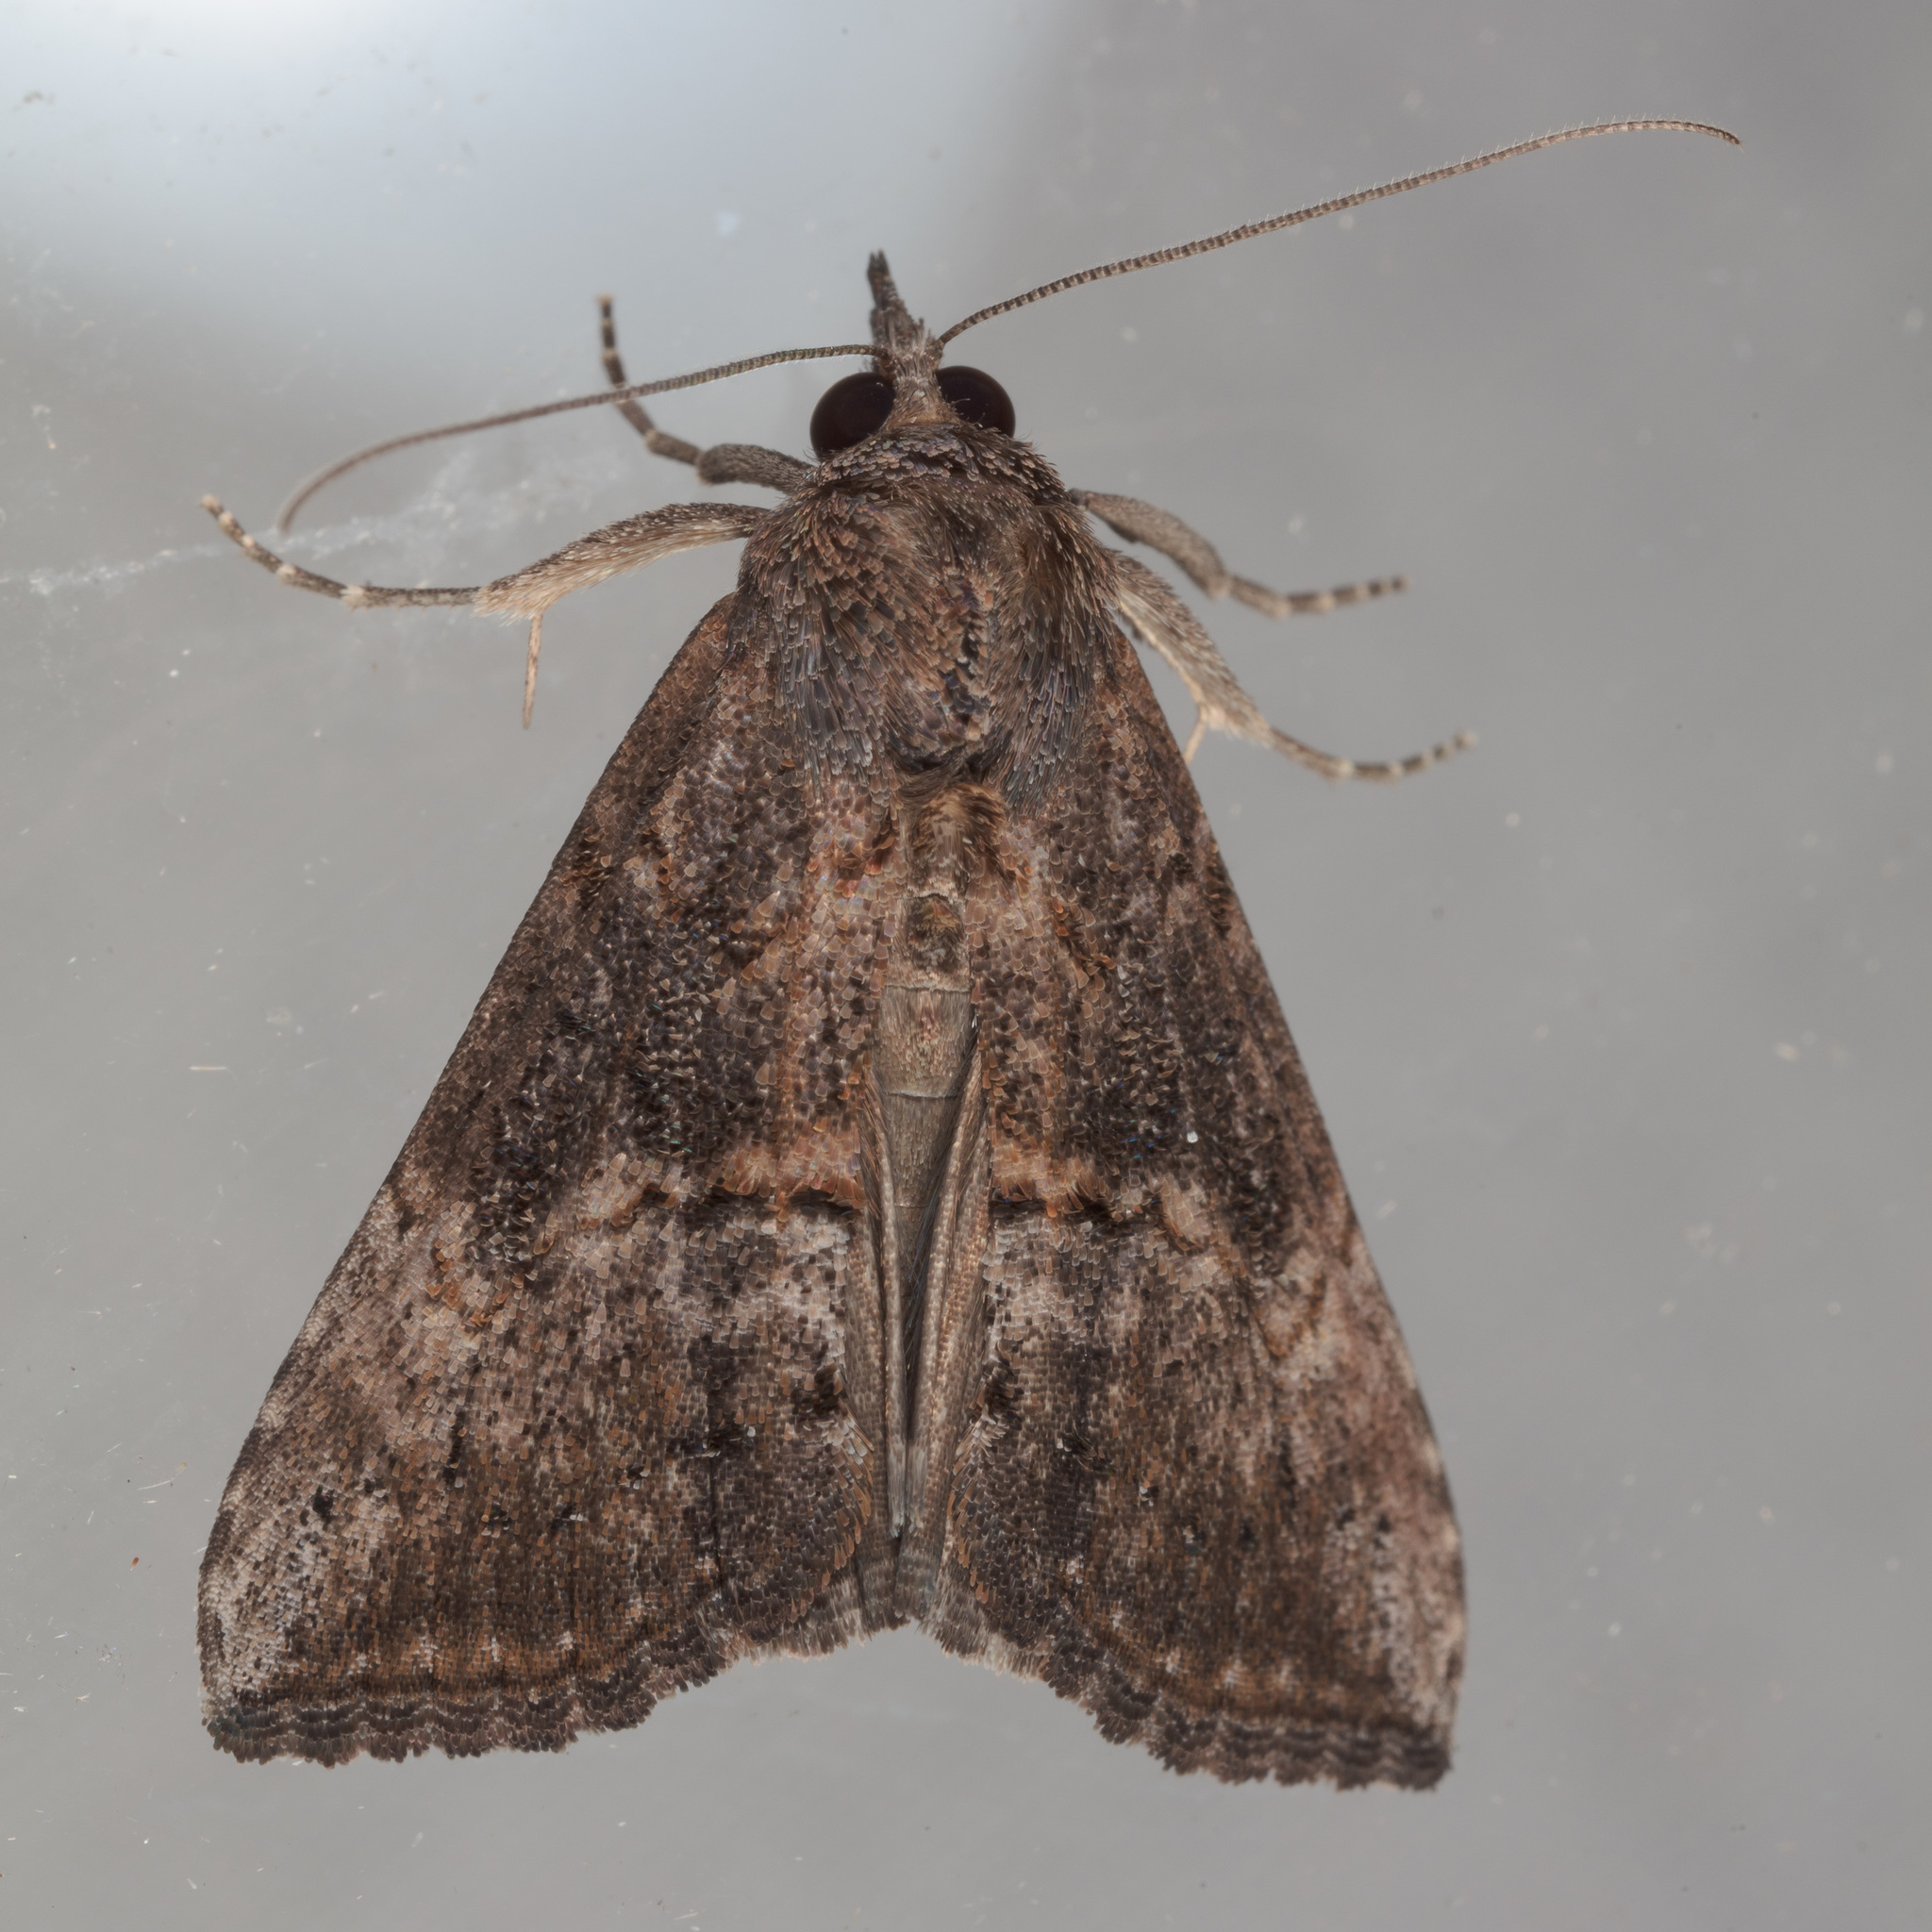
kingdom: Animalia
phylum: Arthropoda
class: Insecta
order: Lepidoptera
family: Erebidae
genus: Hypena
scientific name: Hypena scabra
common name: Green cloverworm
